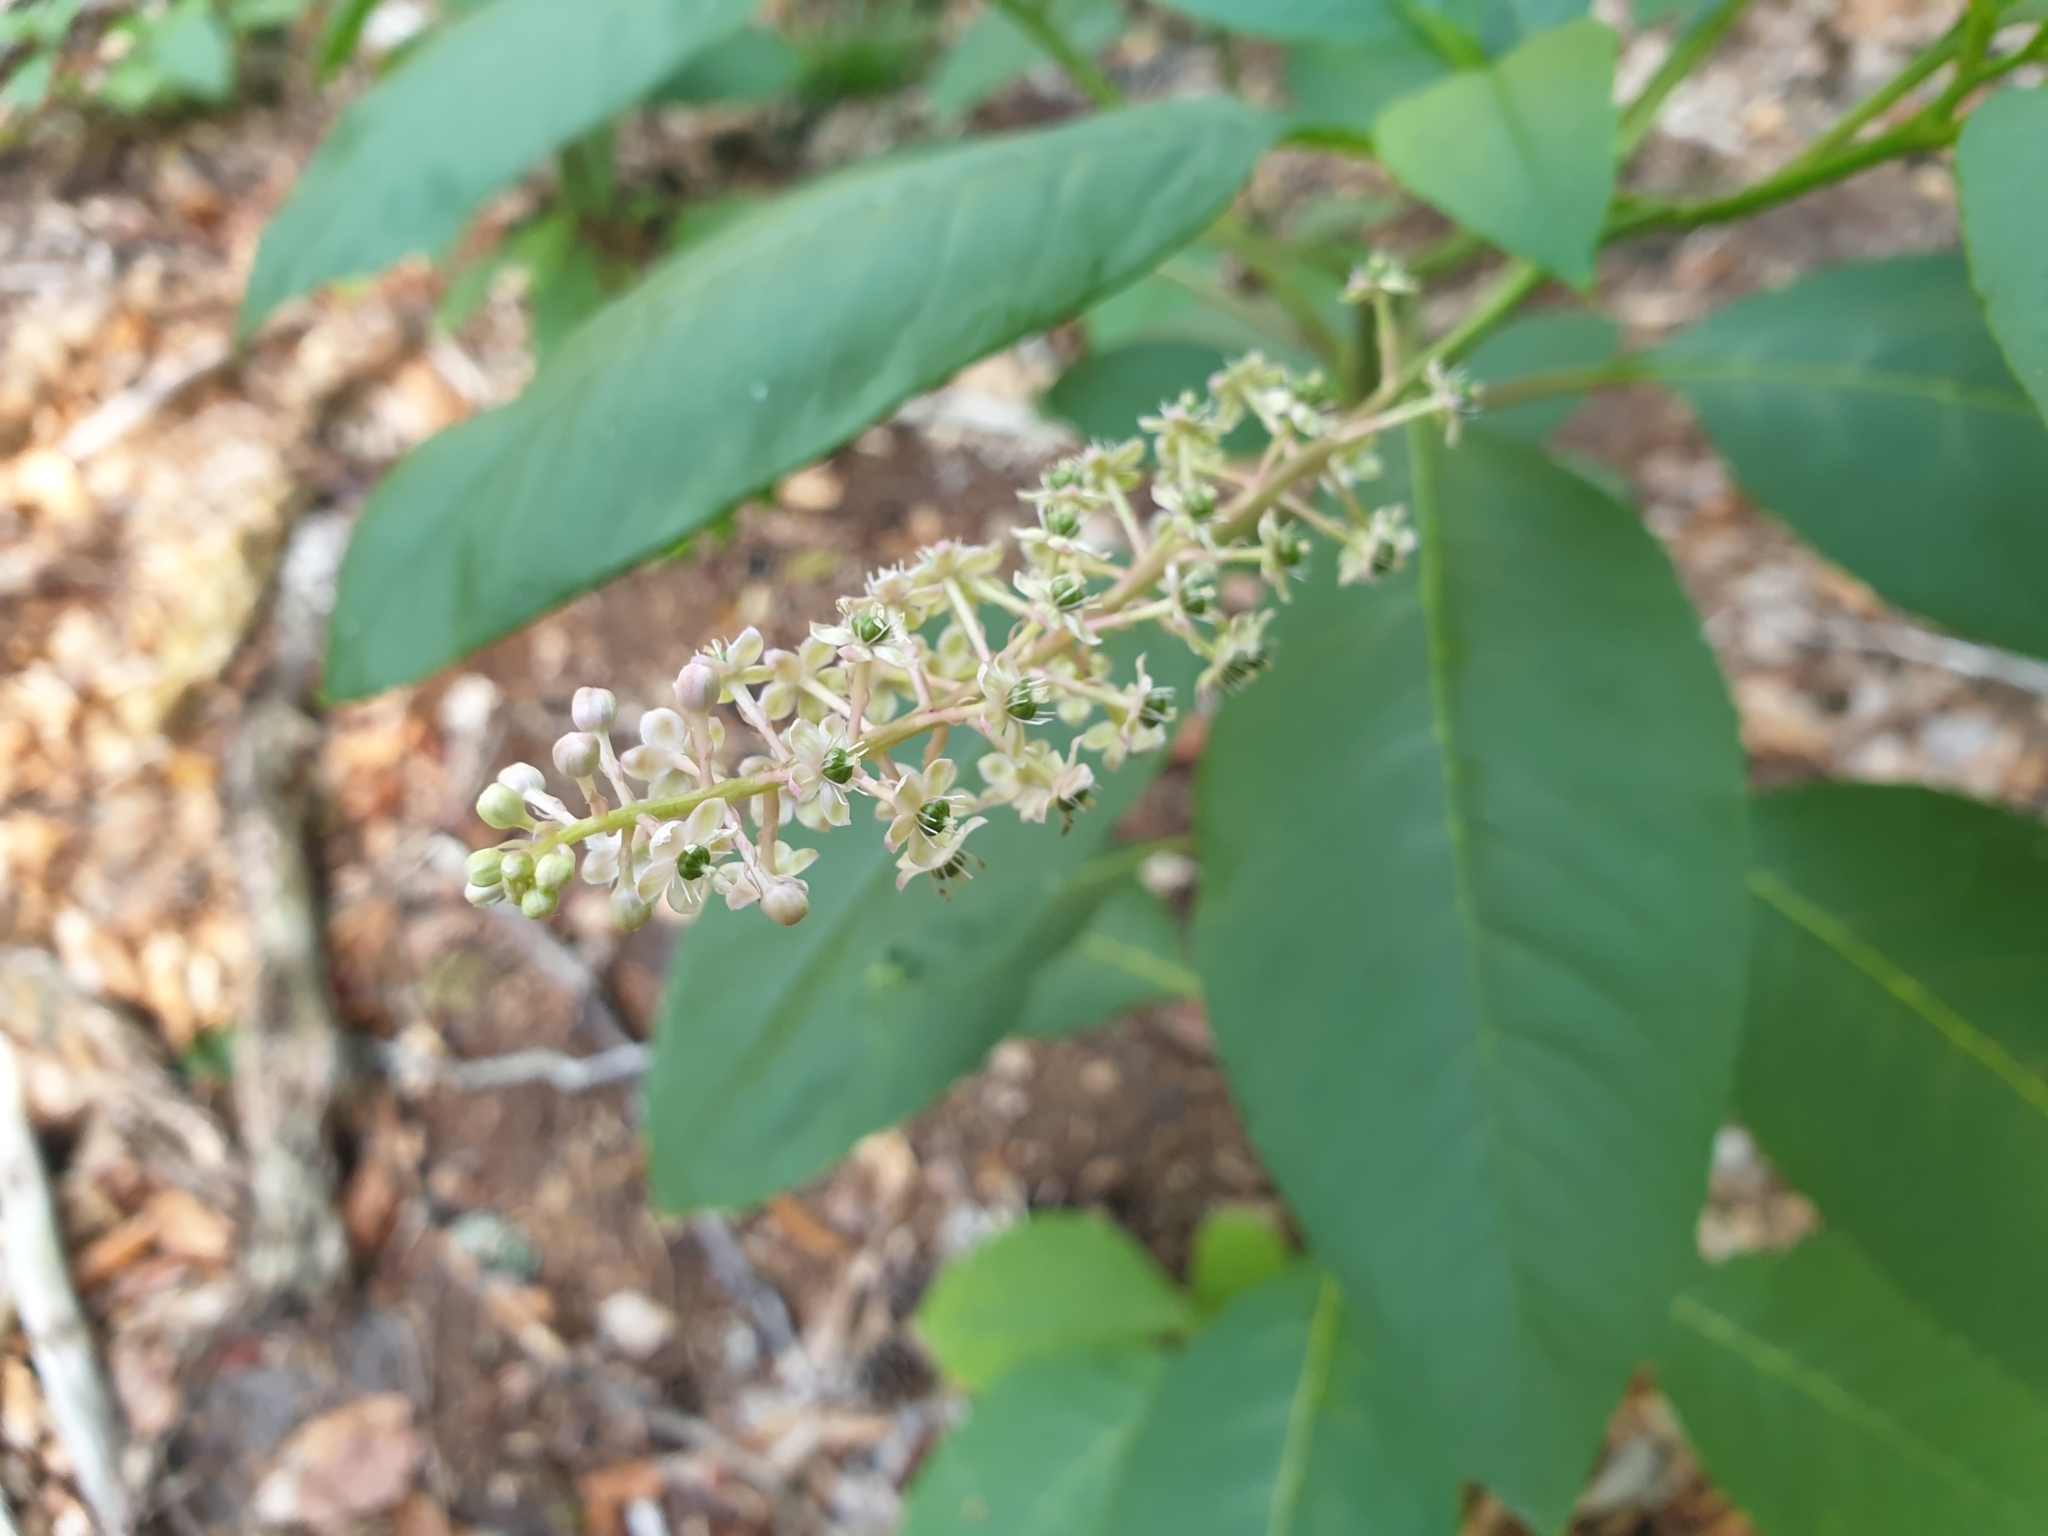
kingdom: Plantae
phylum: Tracheophyta
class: Magnoliopsida
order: Caryophyllales
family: Phytolaccaceae
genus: Phytolacca
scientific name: Phytolacca americana
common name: American pokeweed
